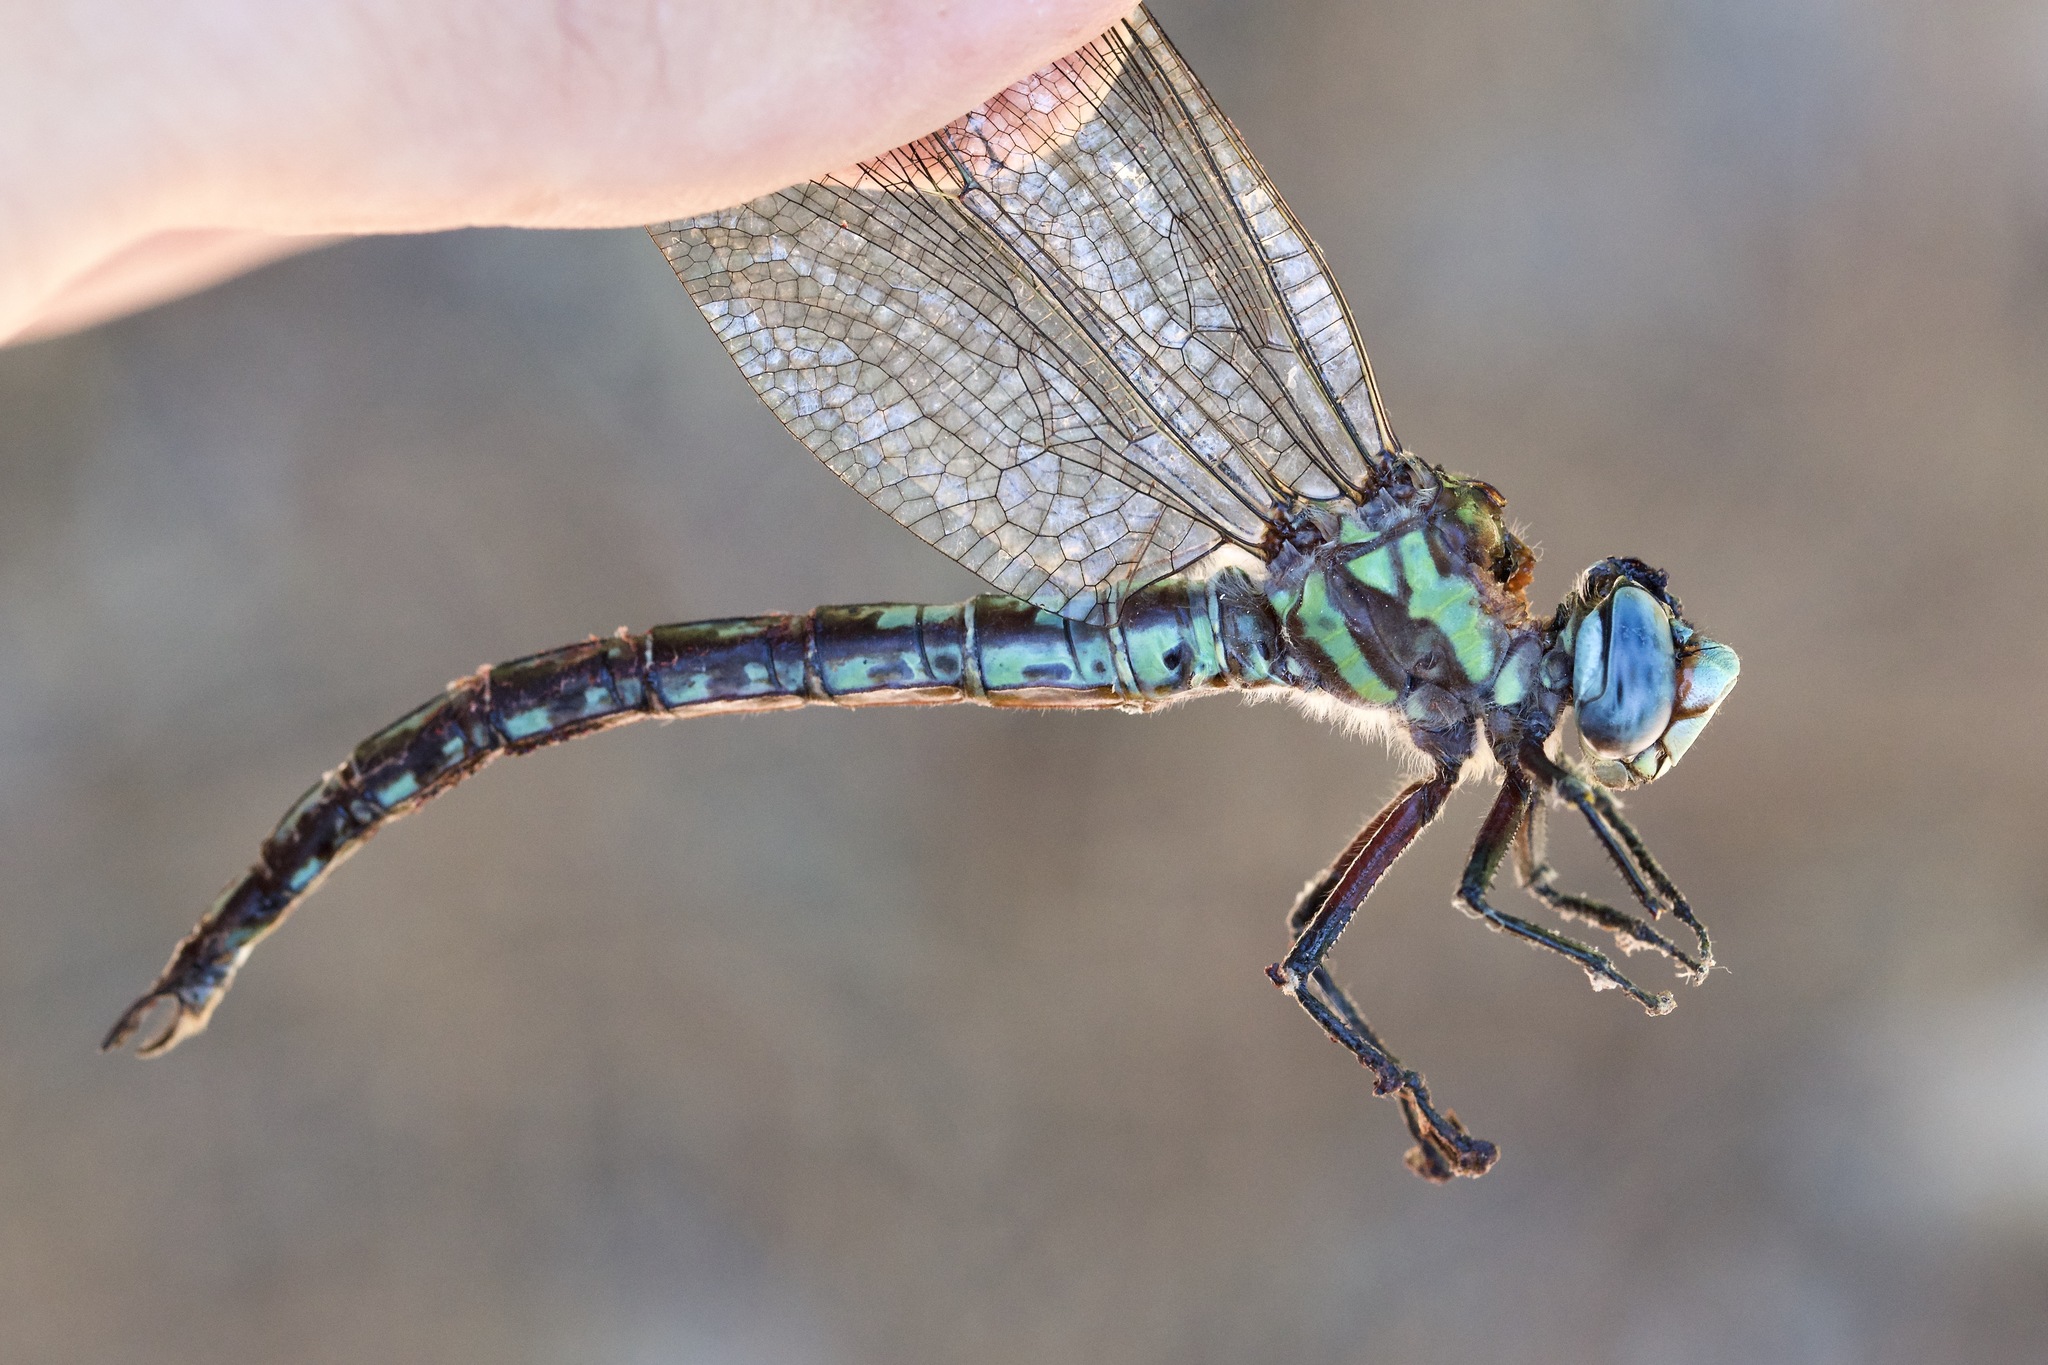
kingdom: Animalia
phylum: Arthropoda
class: Insecta
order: Odonata
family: Aeshnidae
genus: Nasiaeschna
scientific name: Nasiaeschna pentacantha
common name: Cyrano darner
